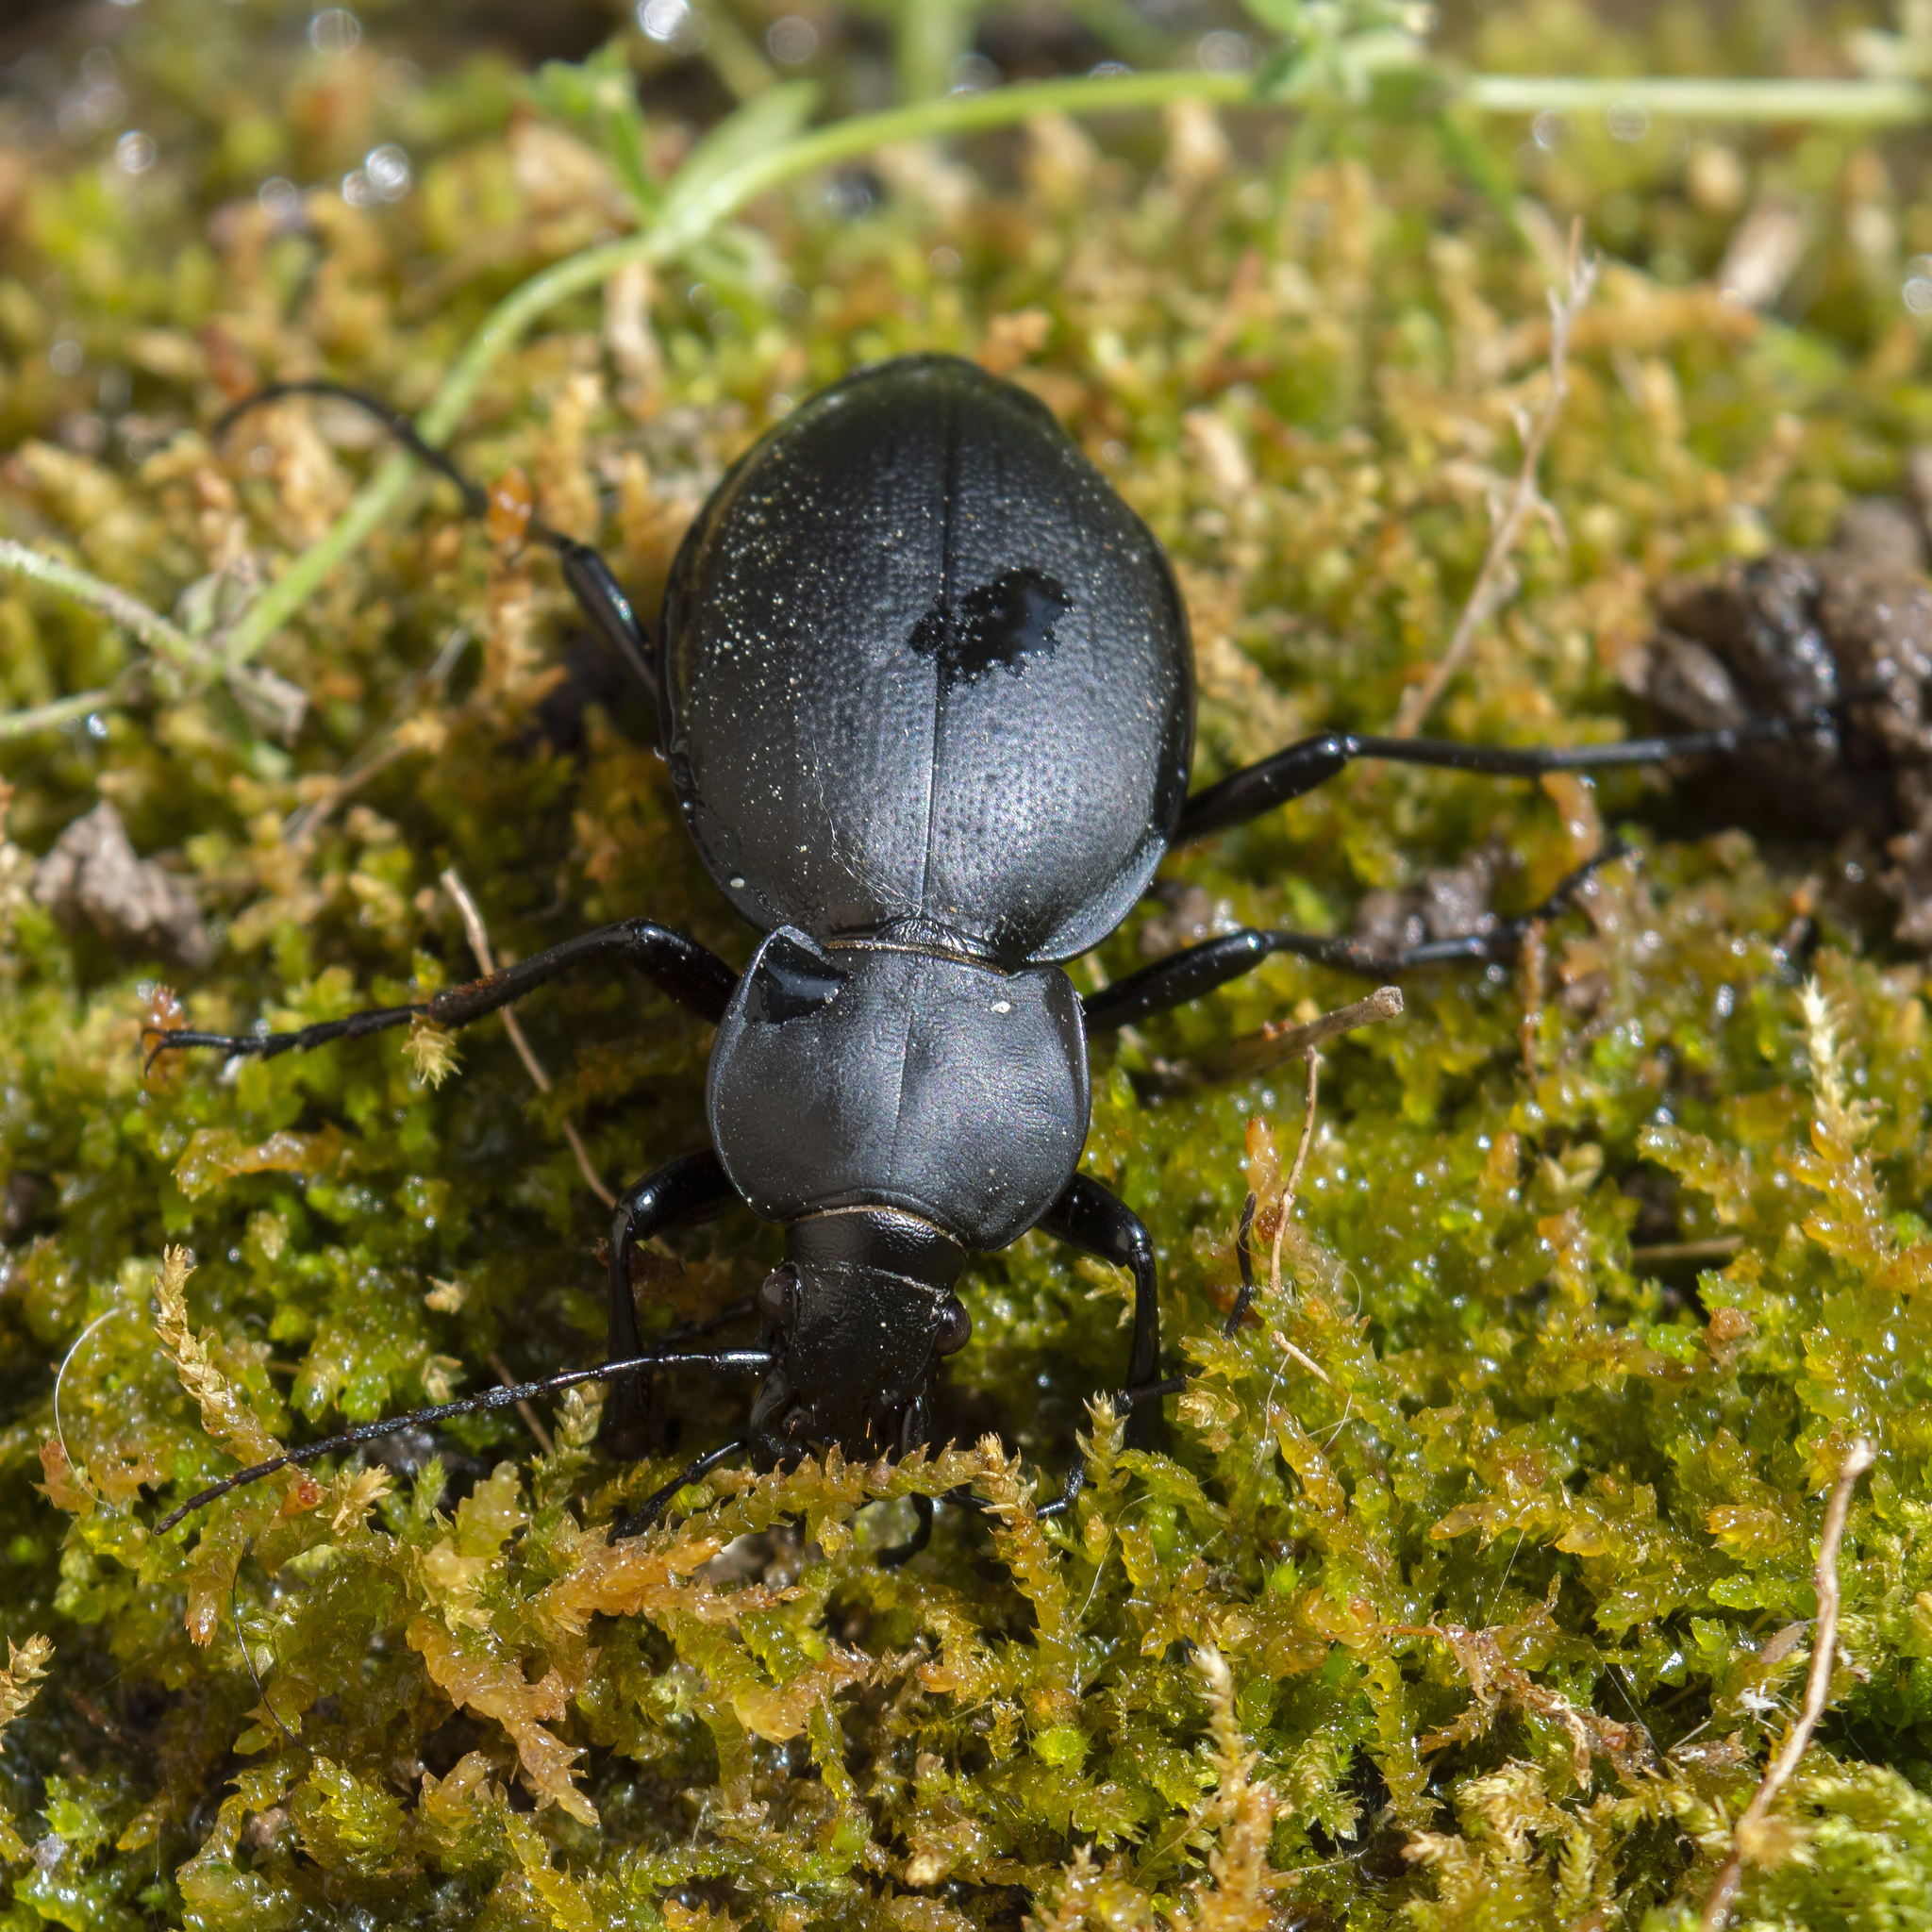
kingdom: Animalia
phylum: Arthropoda
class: Insecta
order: Coleoptera
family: Carabidae
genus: Carabus
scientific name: Carabus coriaceus
